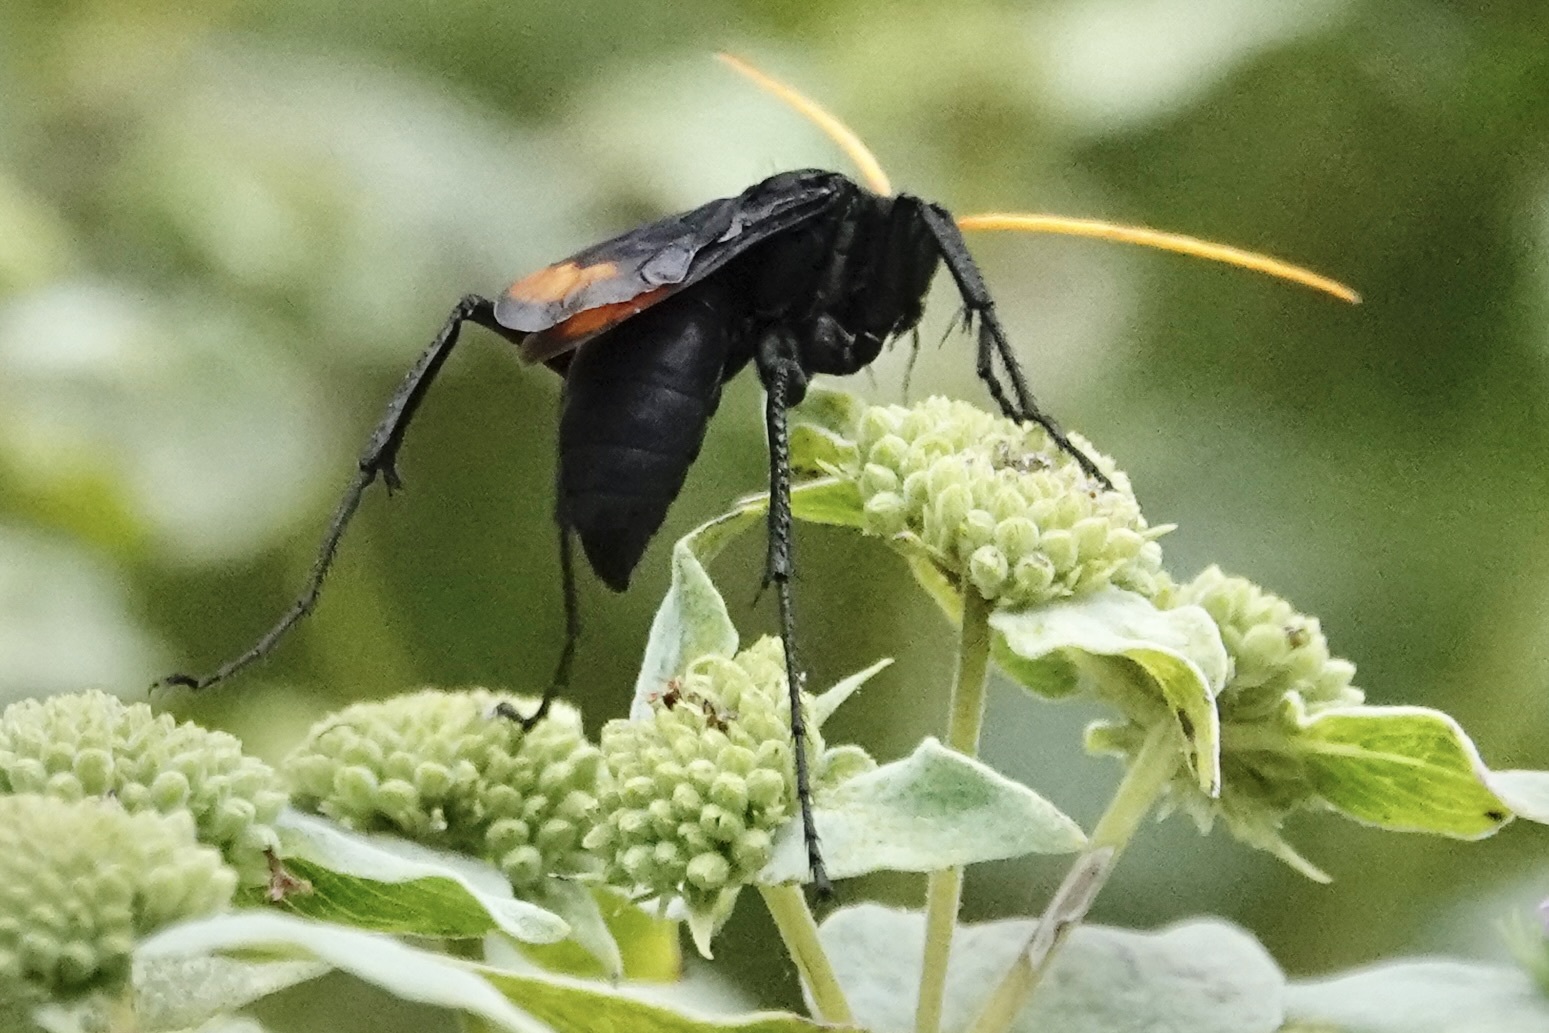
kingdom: Animalia
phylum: Arthropoda
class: Insecta
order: Hymenoptera
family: Pompilidae
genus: Entypus
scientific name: Entypus unifasciatus
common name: Eastern tawny-horned spider wasp
